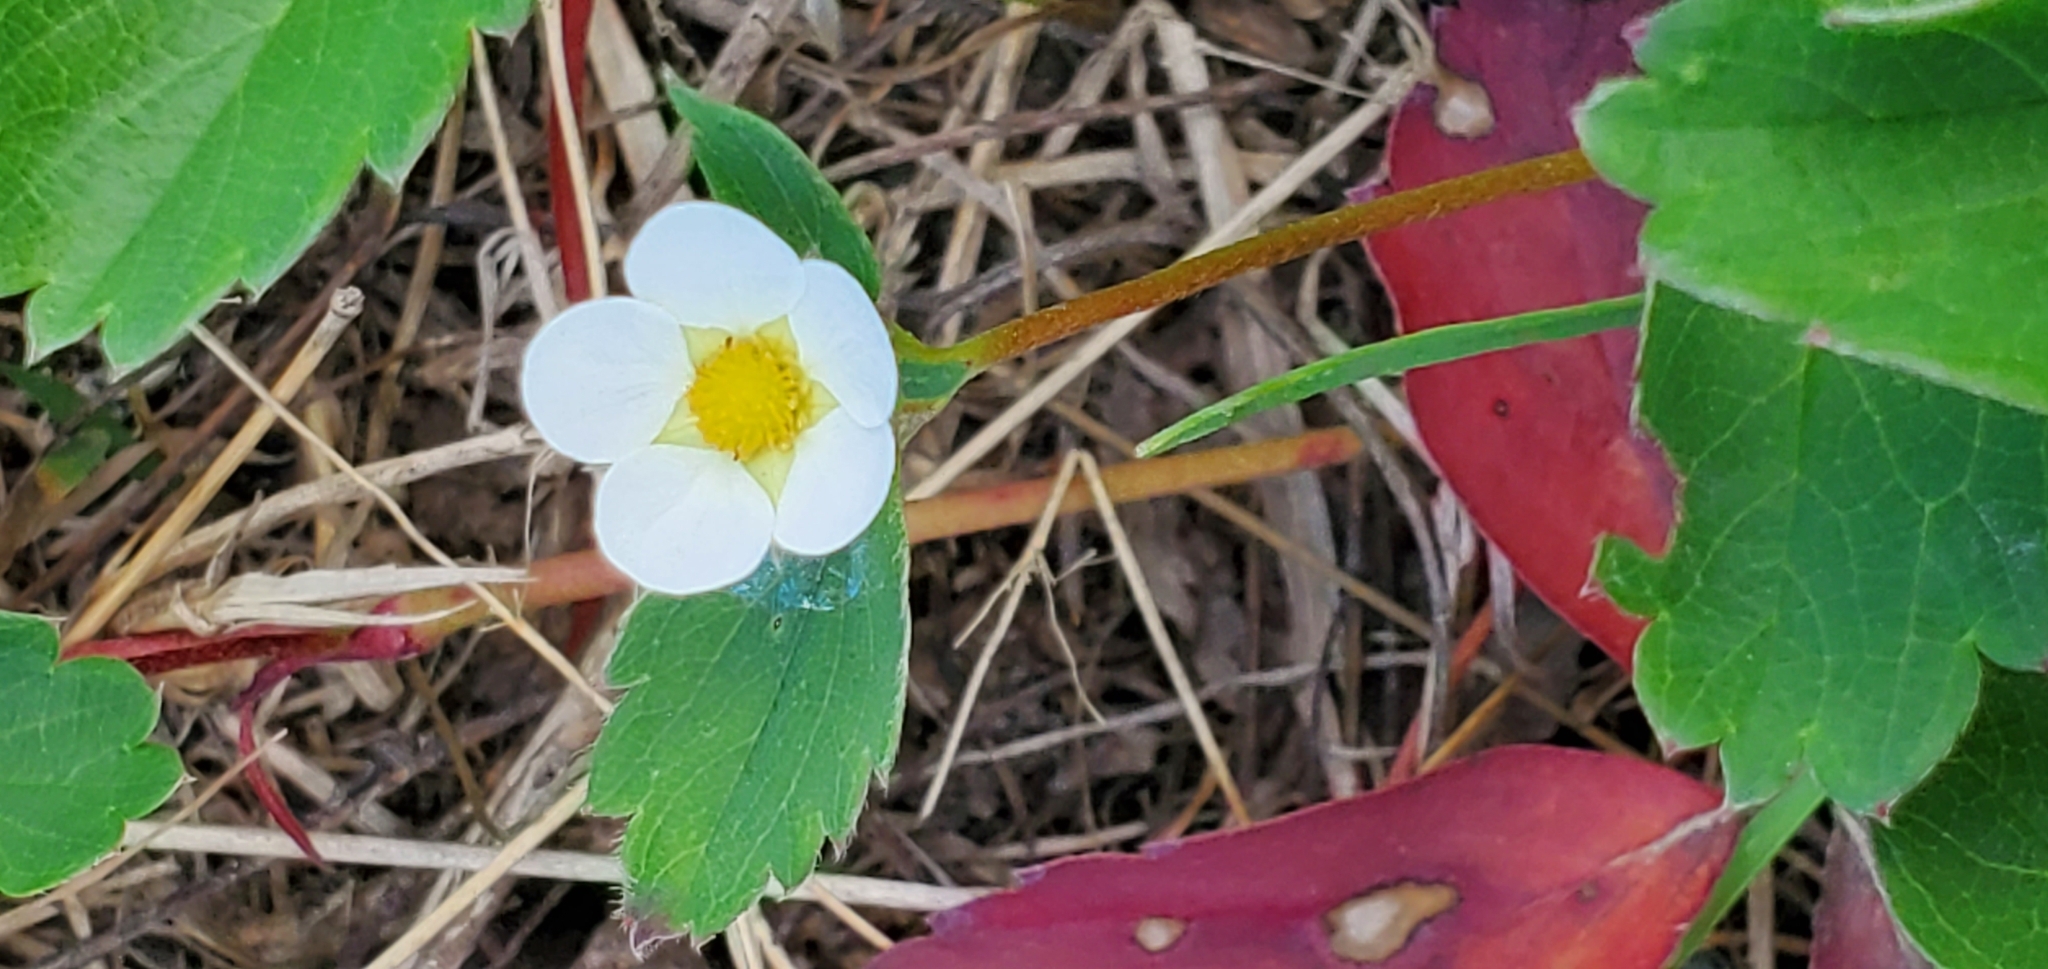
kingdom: Plantae
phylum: Tracheophyta
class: Magnoliopsida
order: Rosales
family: Rosaceae
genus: Fragaria
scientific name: Fragaria virginiana
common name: Thickleaved wild strawberry
